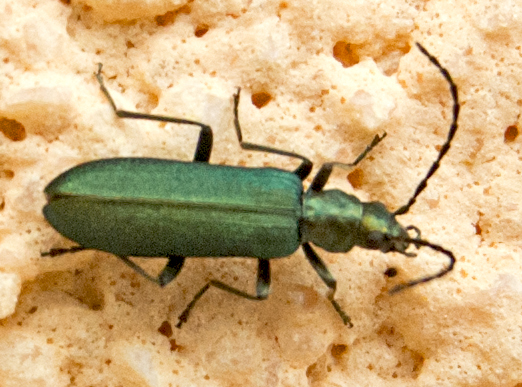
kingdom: Animalia
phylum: Arthropoda
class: Insecta
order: Coleoptera
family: Oedemeridae
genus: Ischnomera
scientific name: Ischnomera cinerascens
